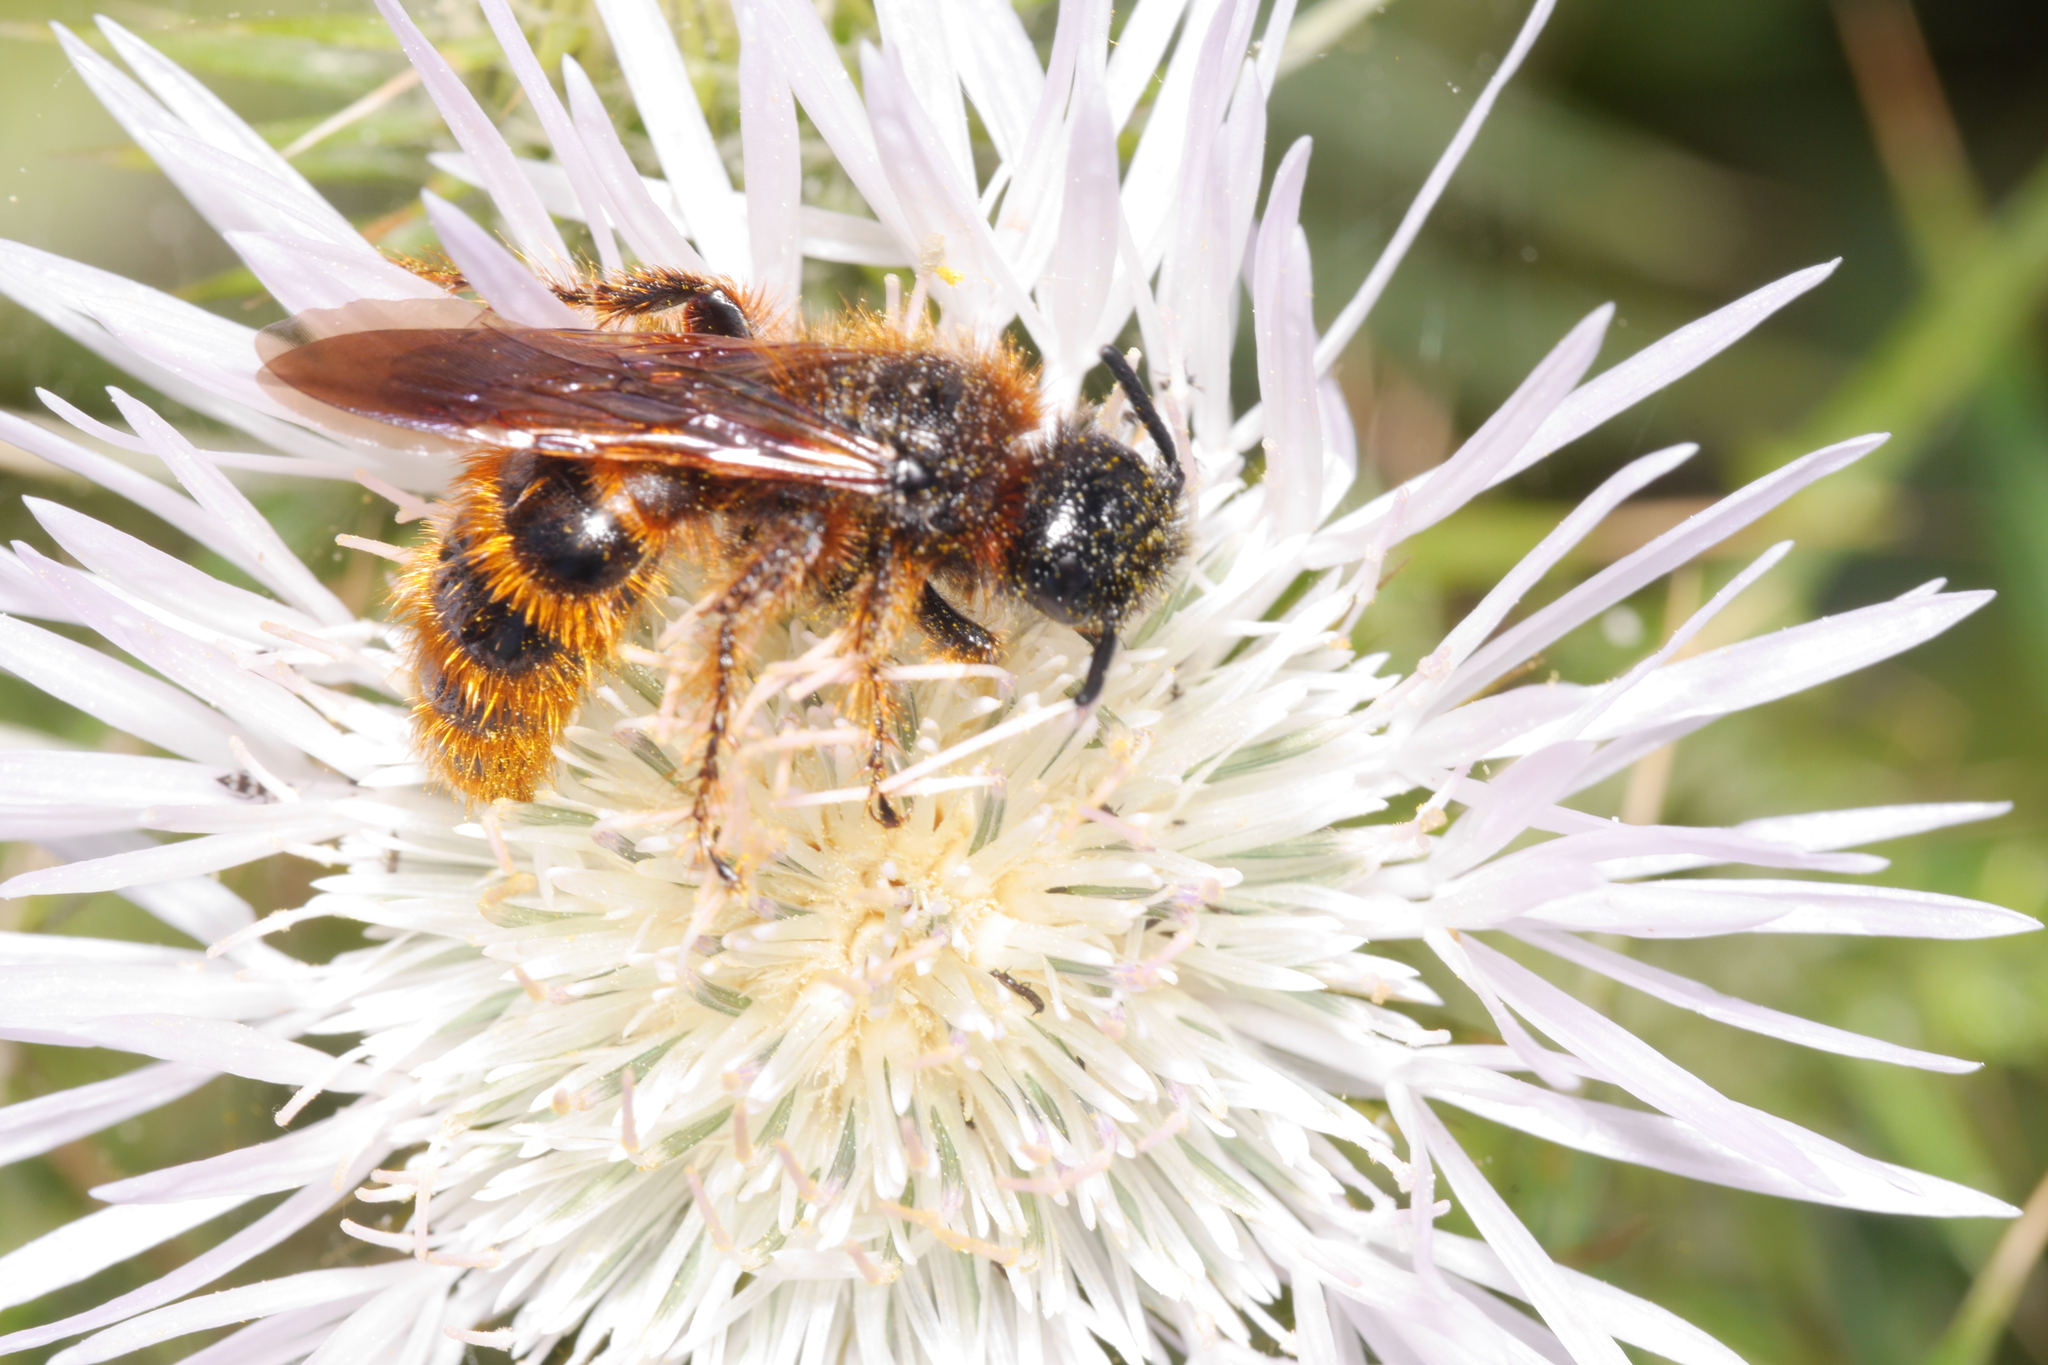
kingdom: Animalia
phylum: Arthropoda
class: Insecta
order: Hymenoptera
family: Scoliidae
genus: Dasyscolia
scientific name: Dasyscolia ciliata
